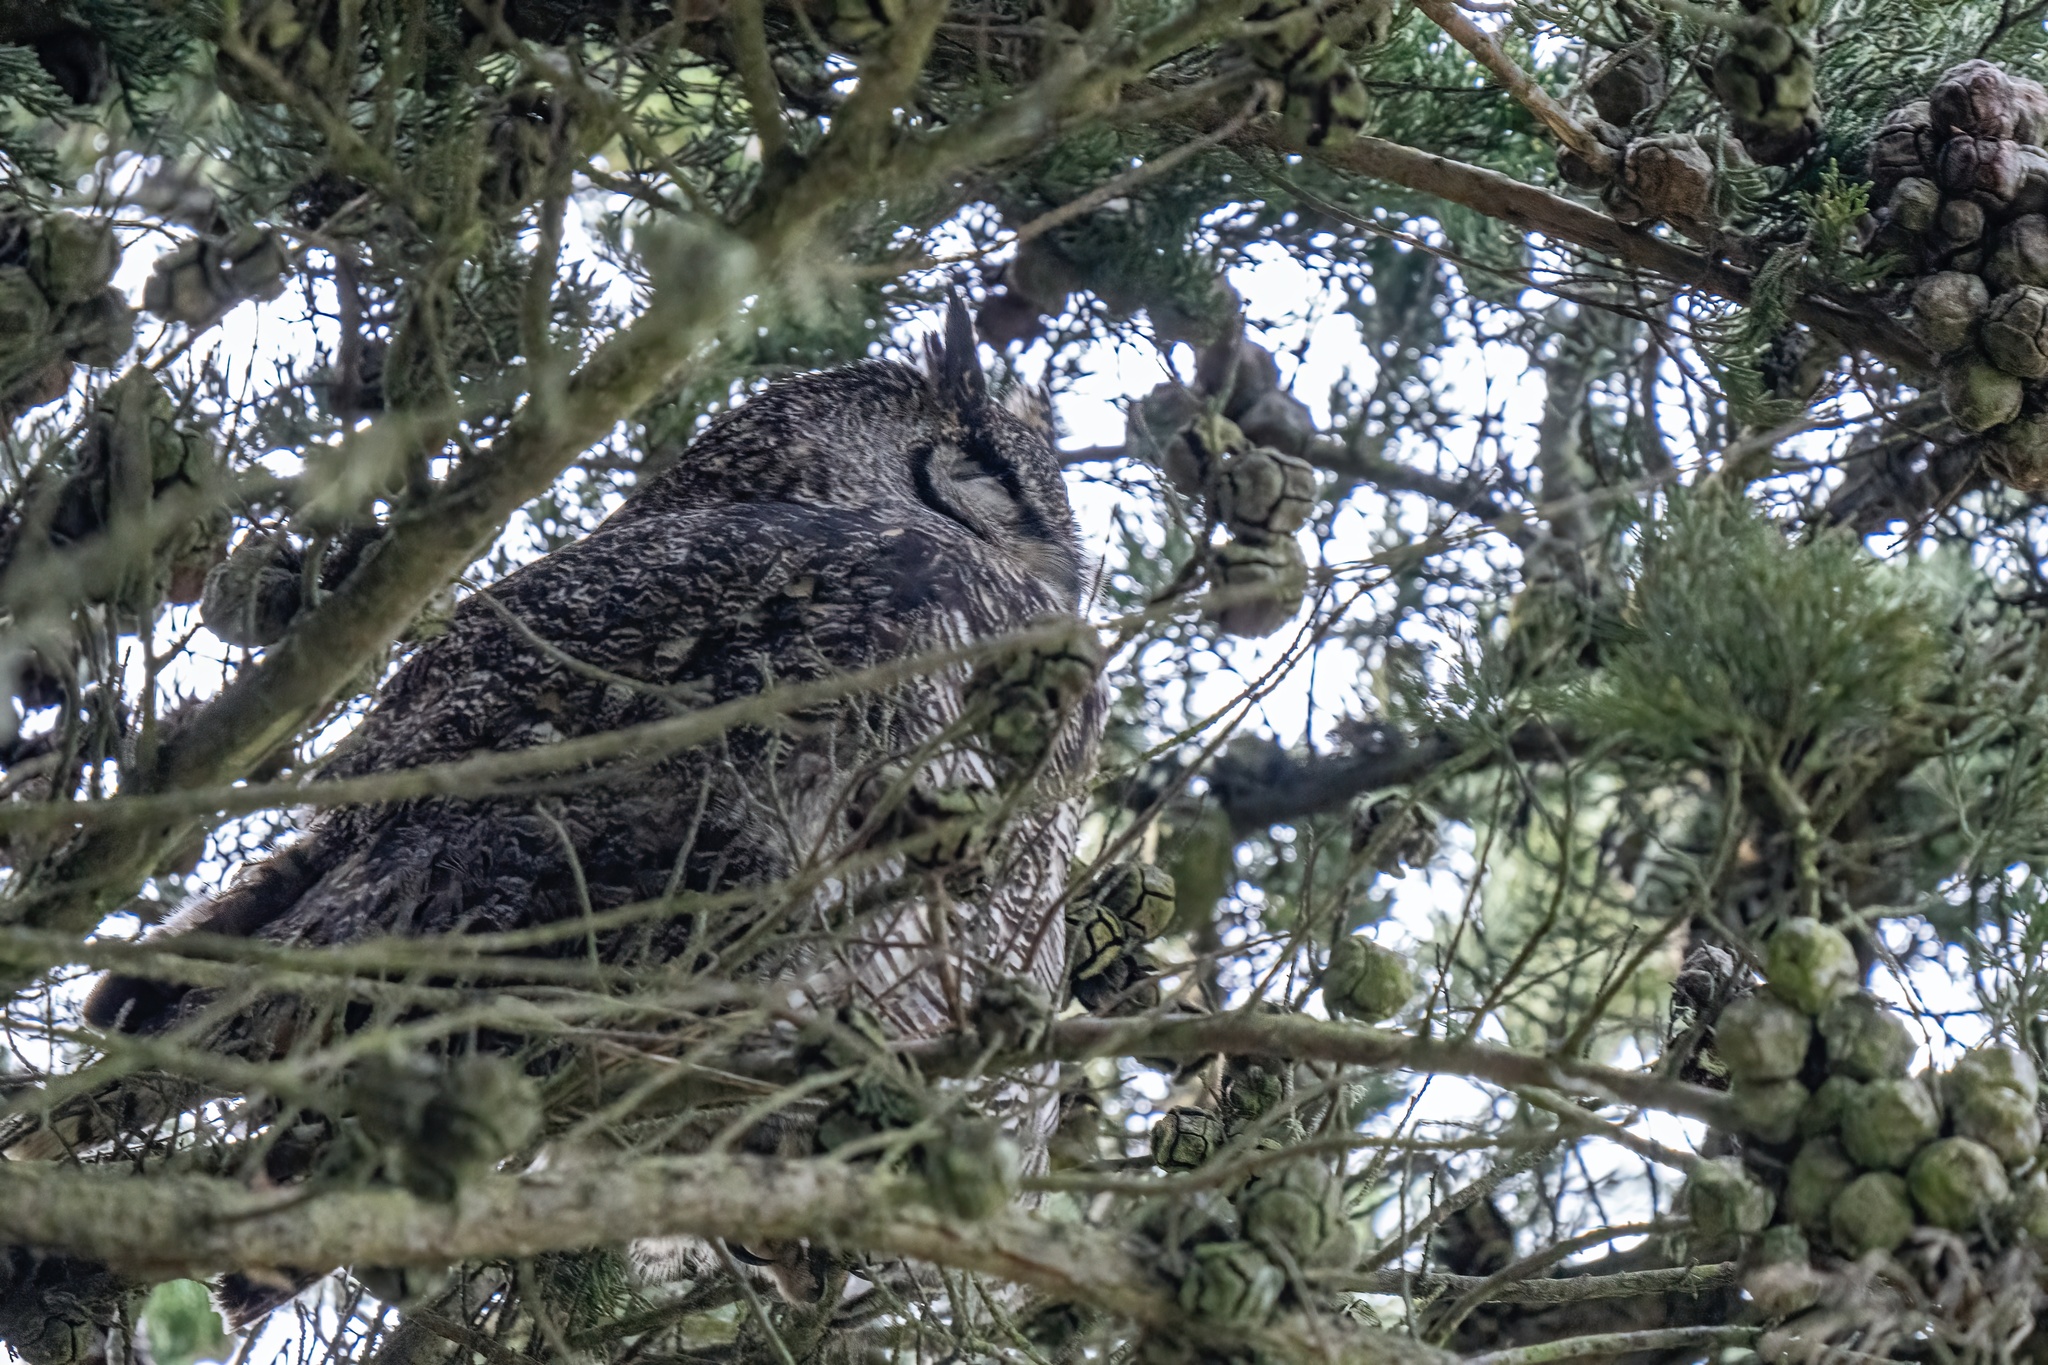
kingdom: Animalia
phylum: Chordata
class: Aves
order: Strigiformes
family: Strigidae
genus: Bubo
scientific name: Bubo virginianus
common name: Great horned owl
